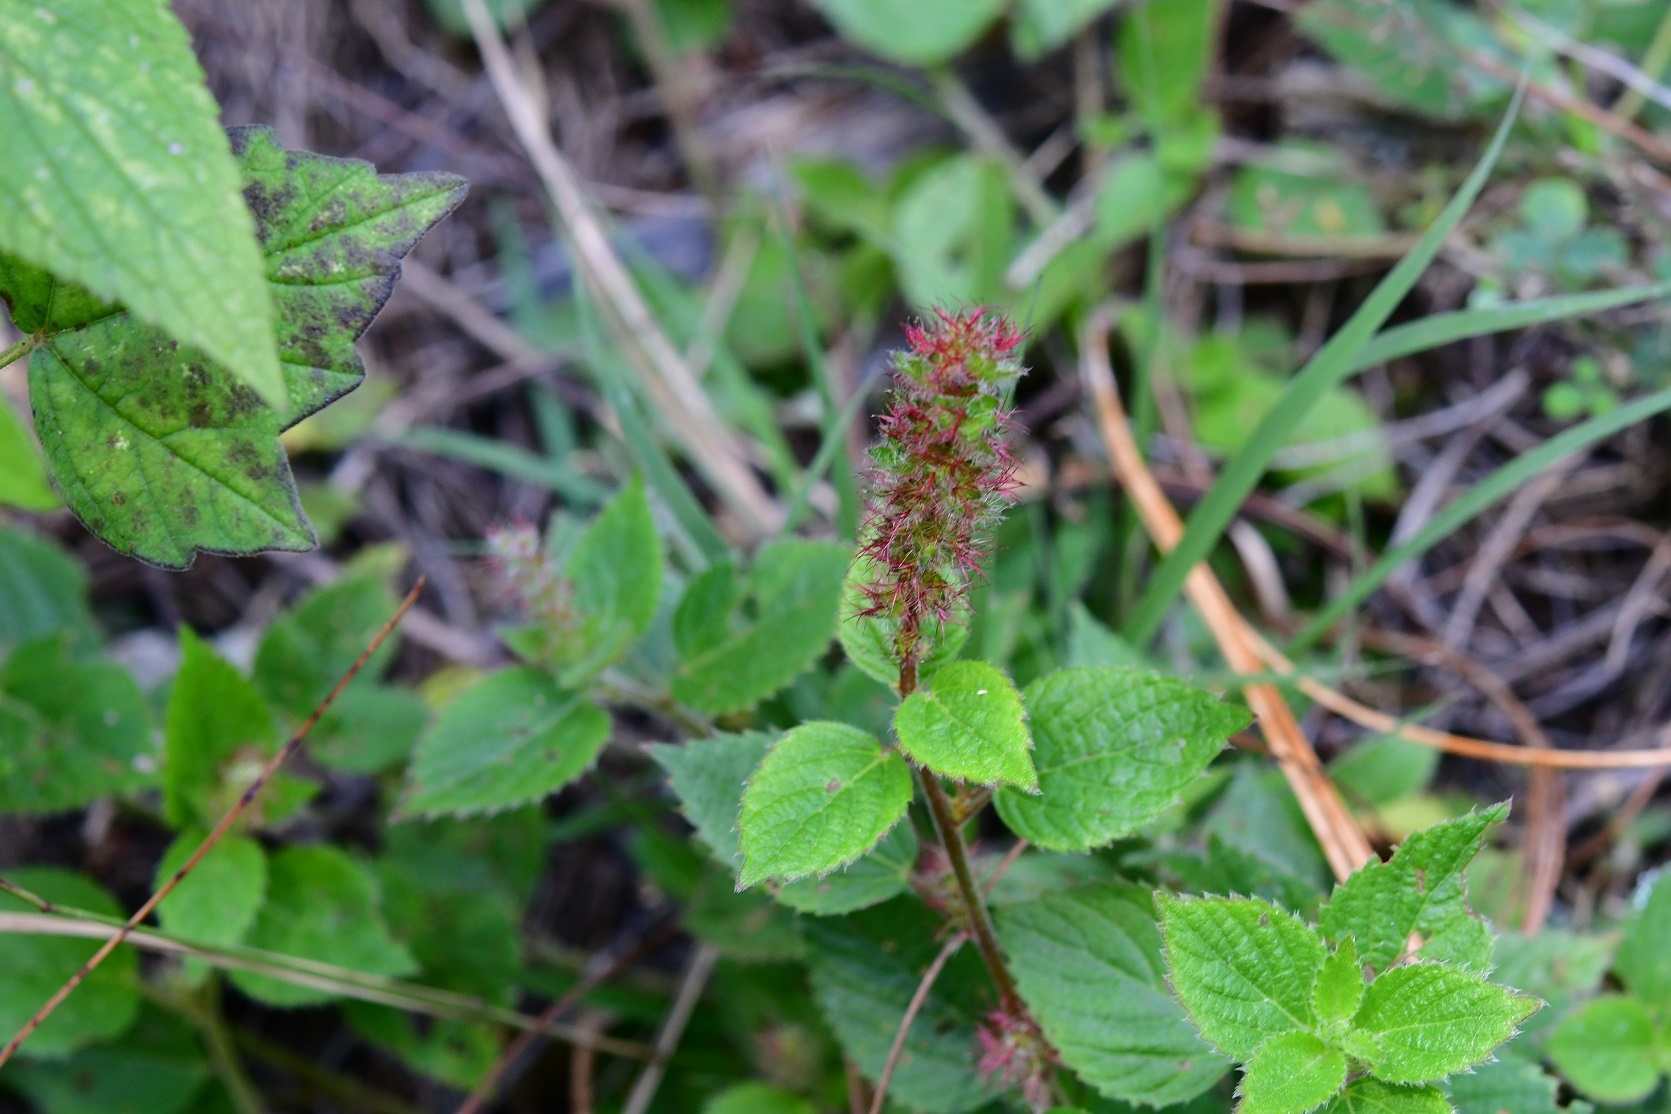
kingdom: Plantae
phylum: Tracheophyta
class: Magnoliopsida
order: Malpighiales
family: Euphorbiaceae
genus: Acalypha
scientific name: Acalypha phleoides
